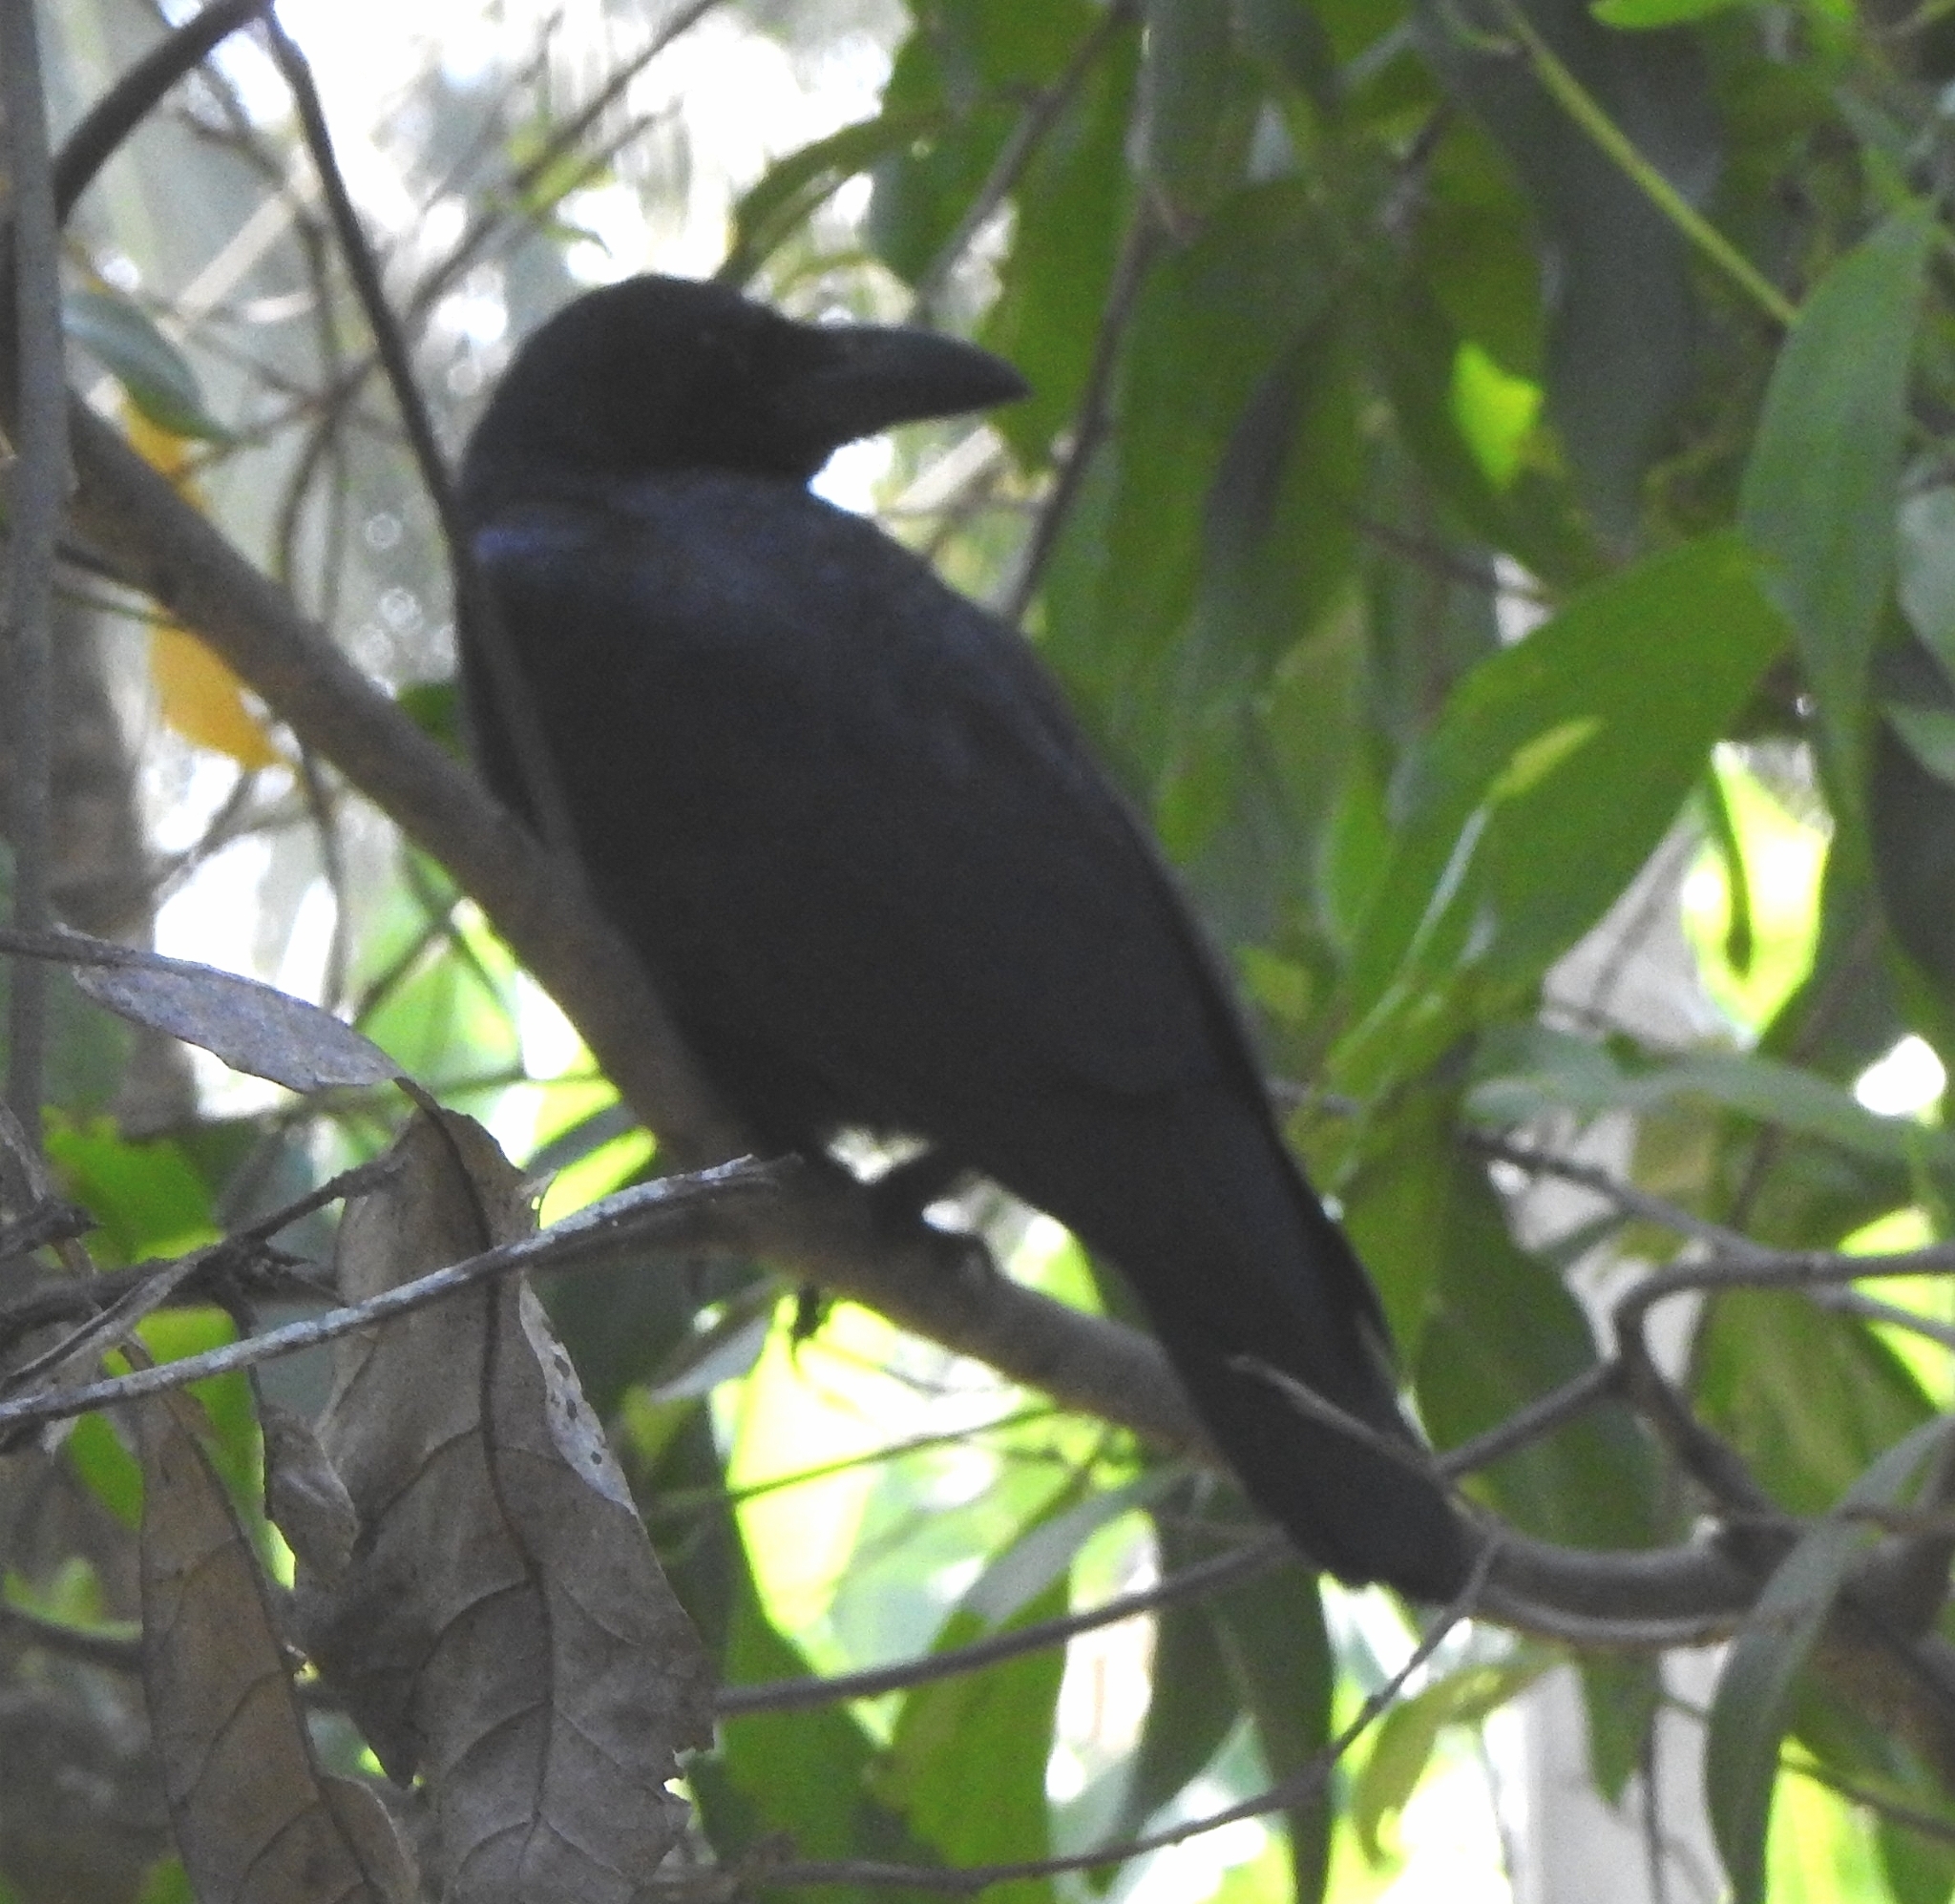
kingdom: Animalia
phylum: Chordata
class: Aves
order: Passeriformes
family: Corvidae
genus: Corvus
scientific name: Corvus macrorhynchos
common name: Large-billed crow
